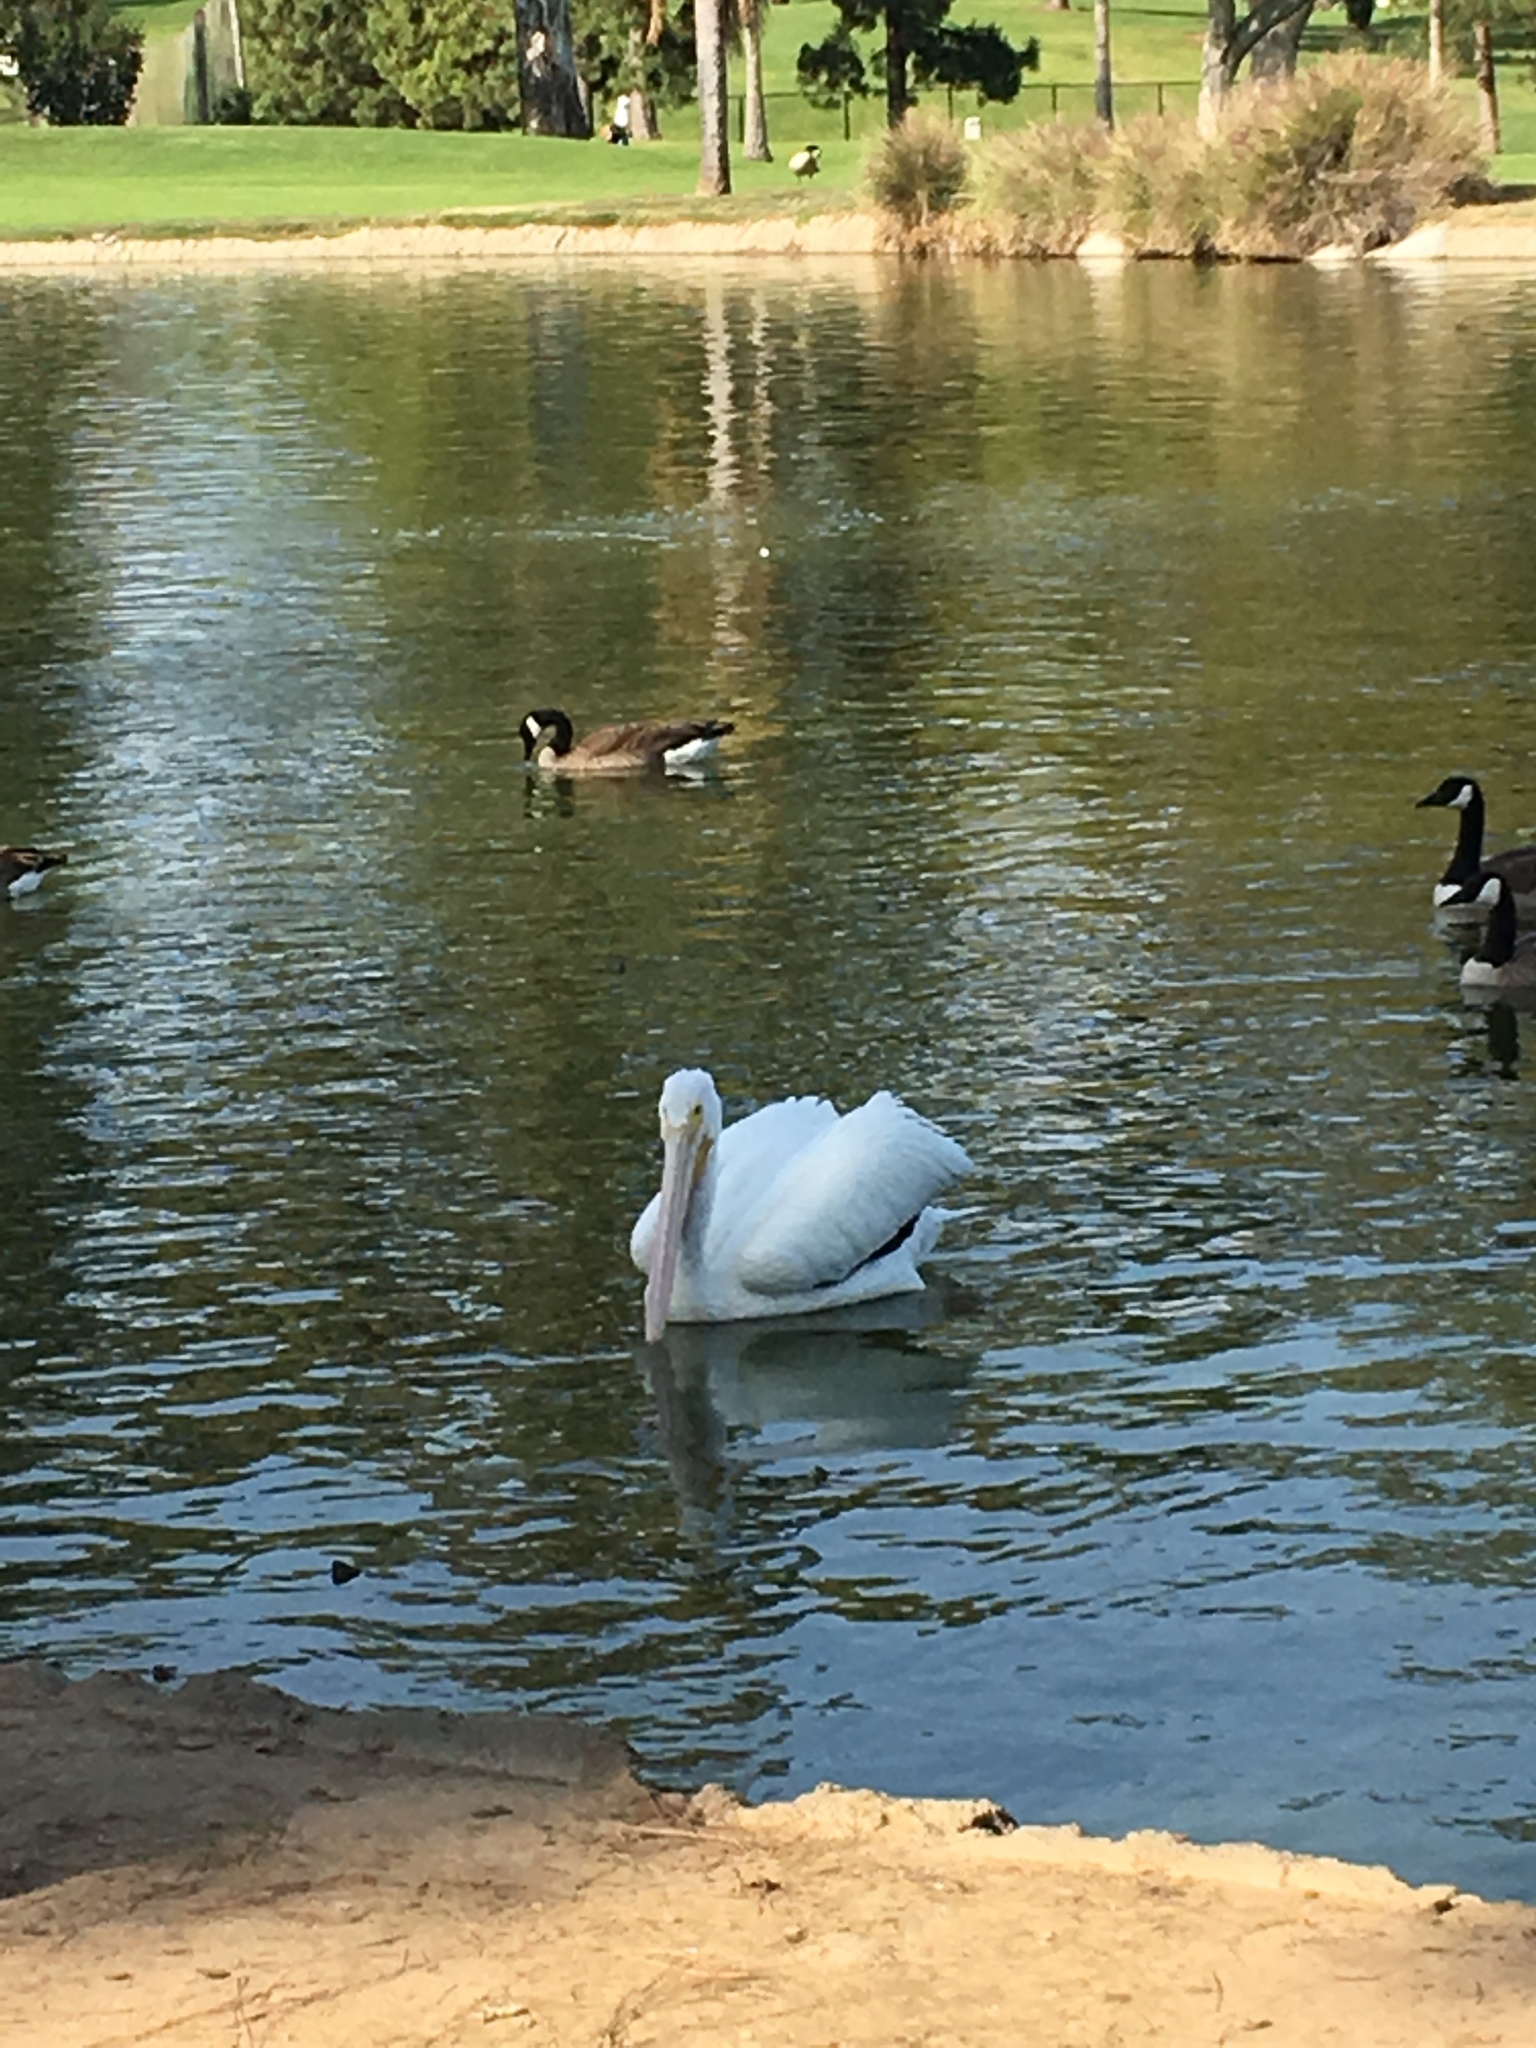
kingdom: Animalia
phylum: Chordata
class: Aves
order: Pelecaniformes
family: Pelecanidae
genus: Pelecanus
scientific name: Pelecanus erythrorhynchos
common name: American white pelican
